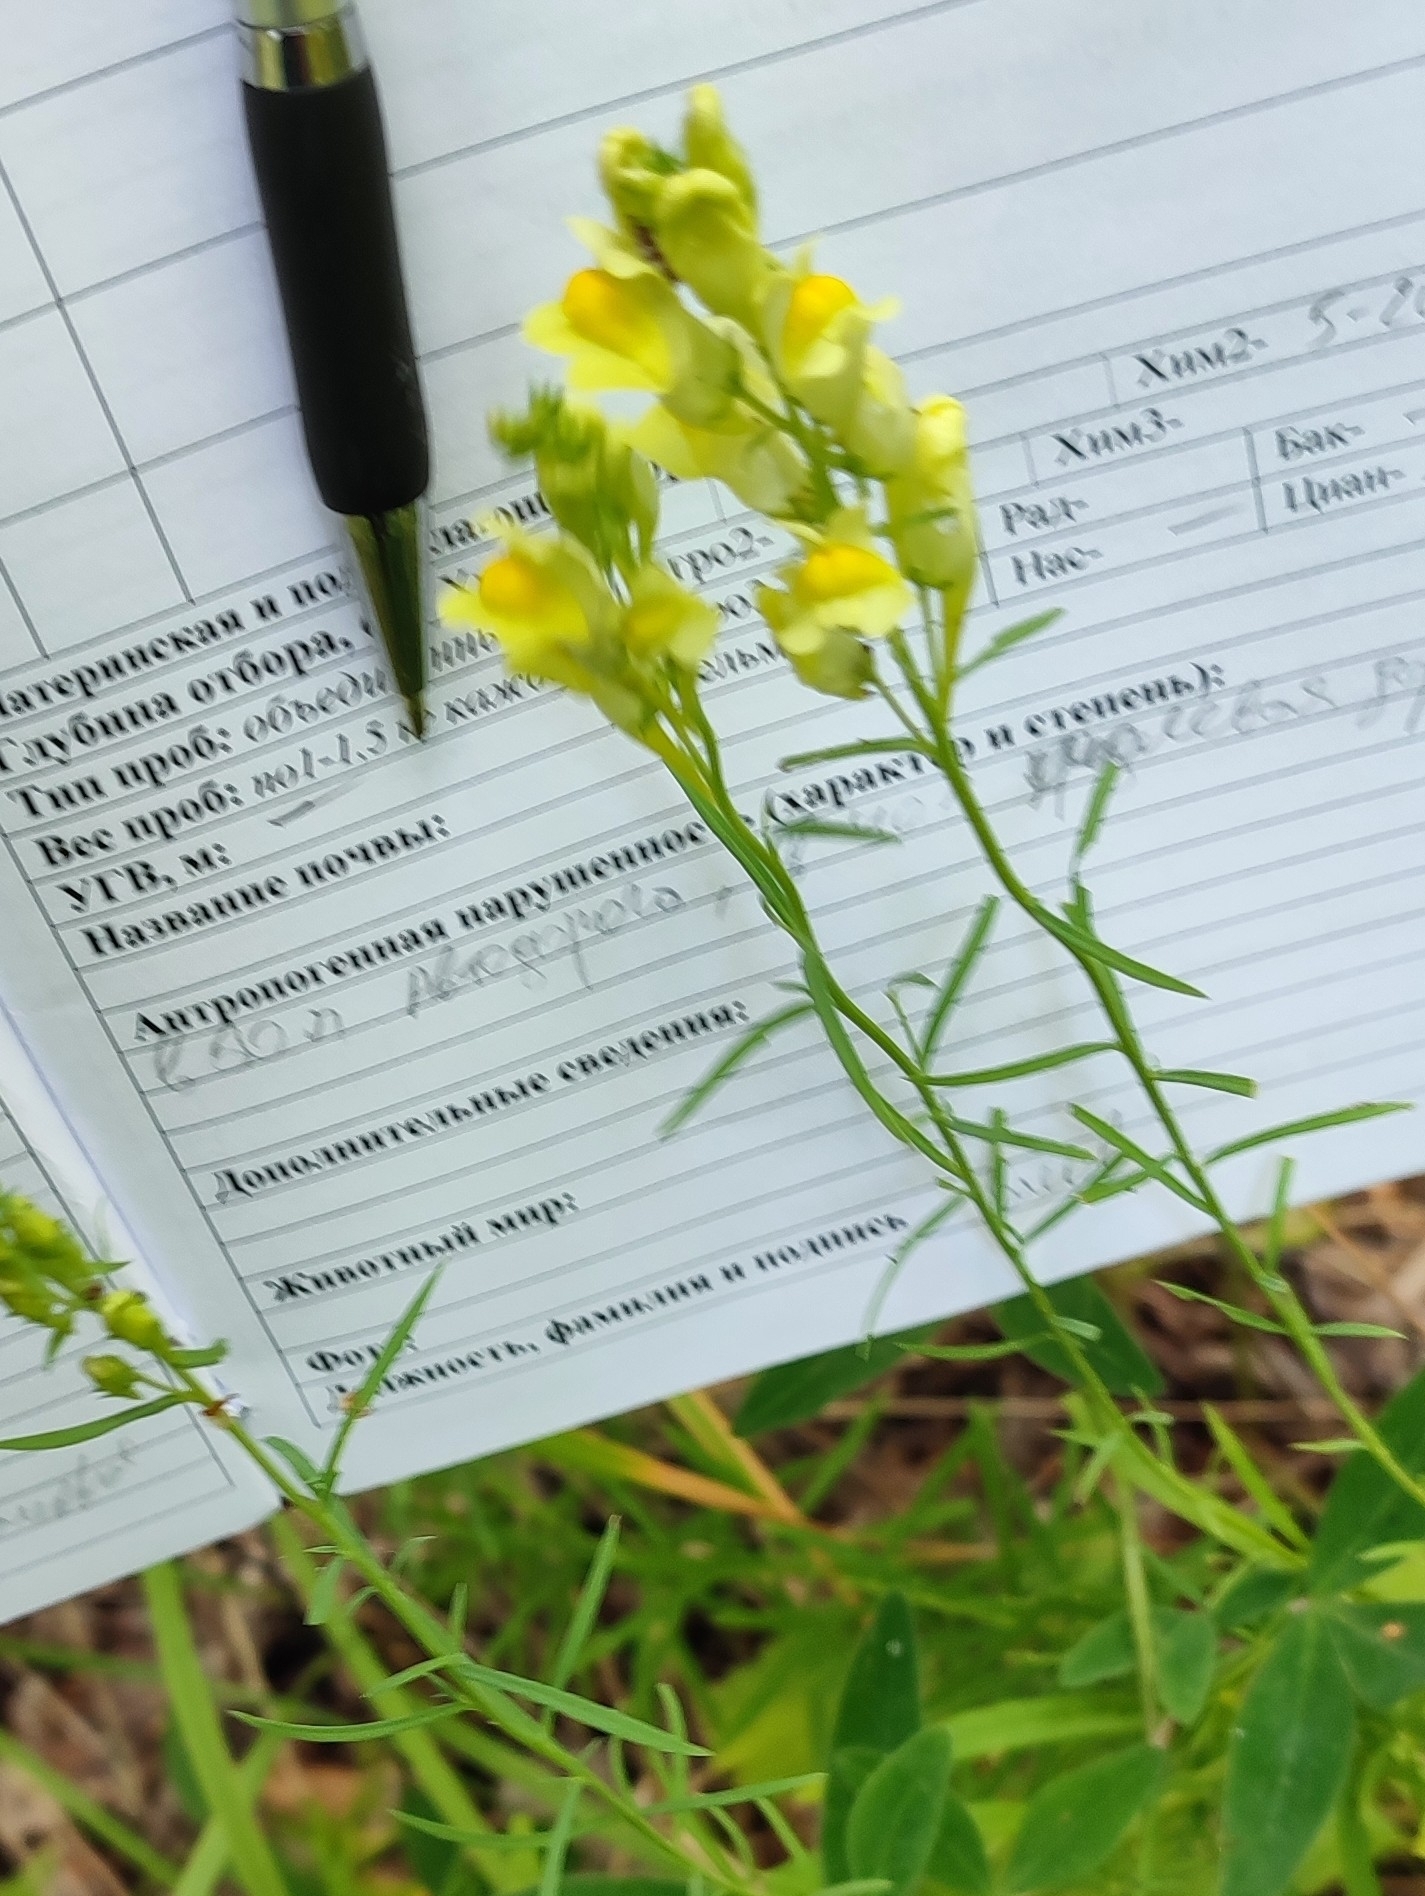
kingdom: Plantae
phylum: Tracheophyta
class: Magnoliopsida
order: Lamiales
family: Plantaginaceae
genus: Linaria
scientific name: Linaria vulgaris
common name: Butter and eggs
